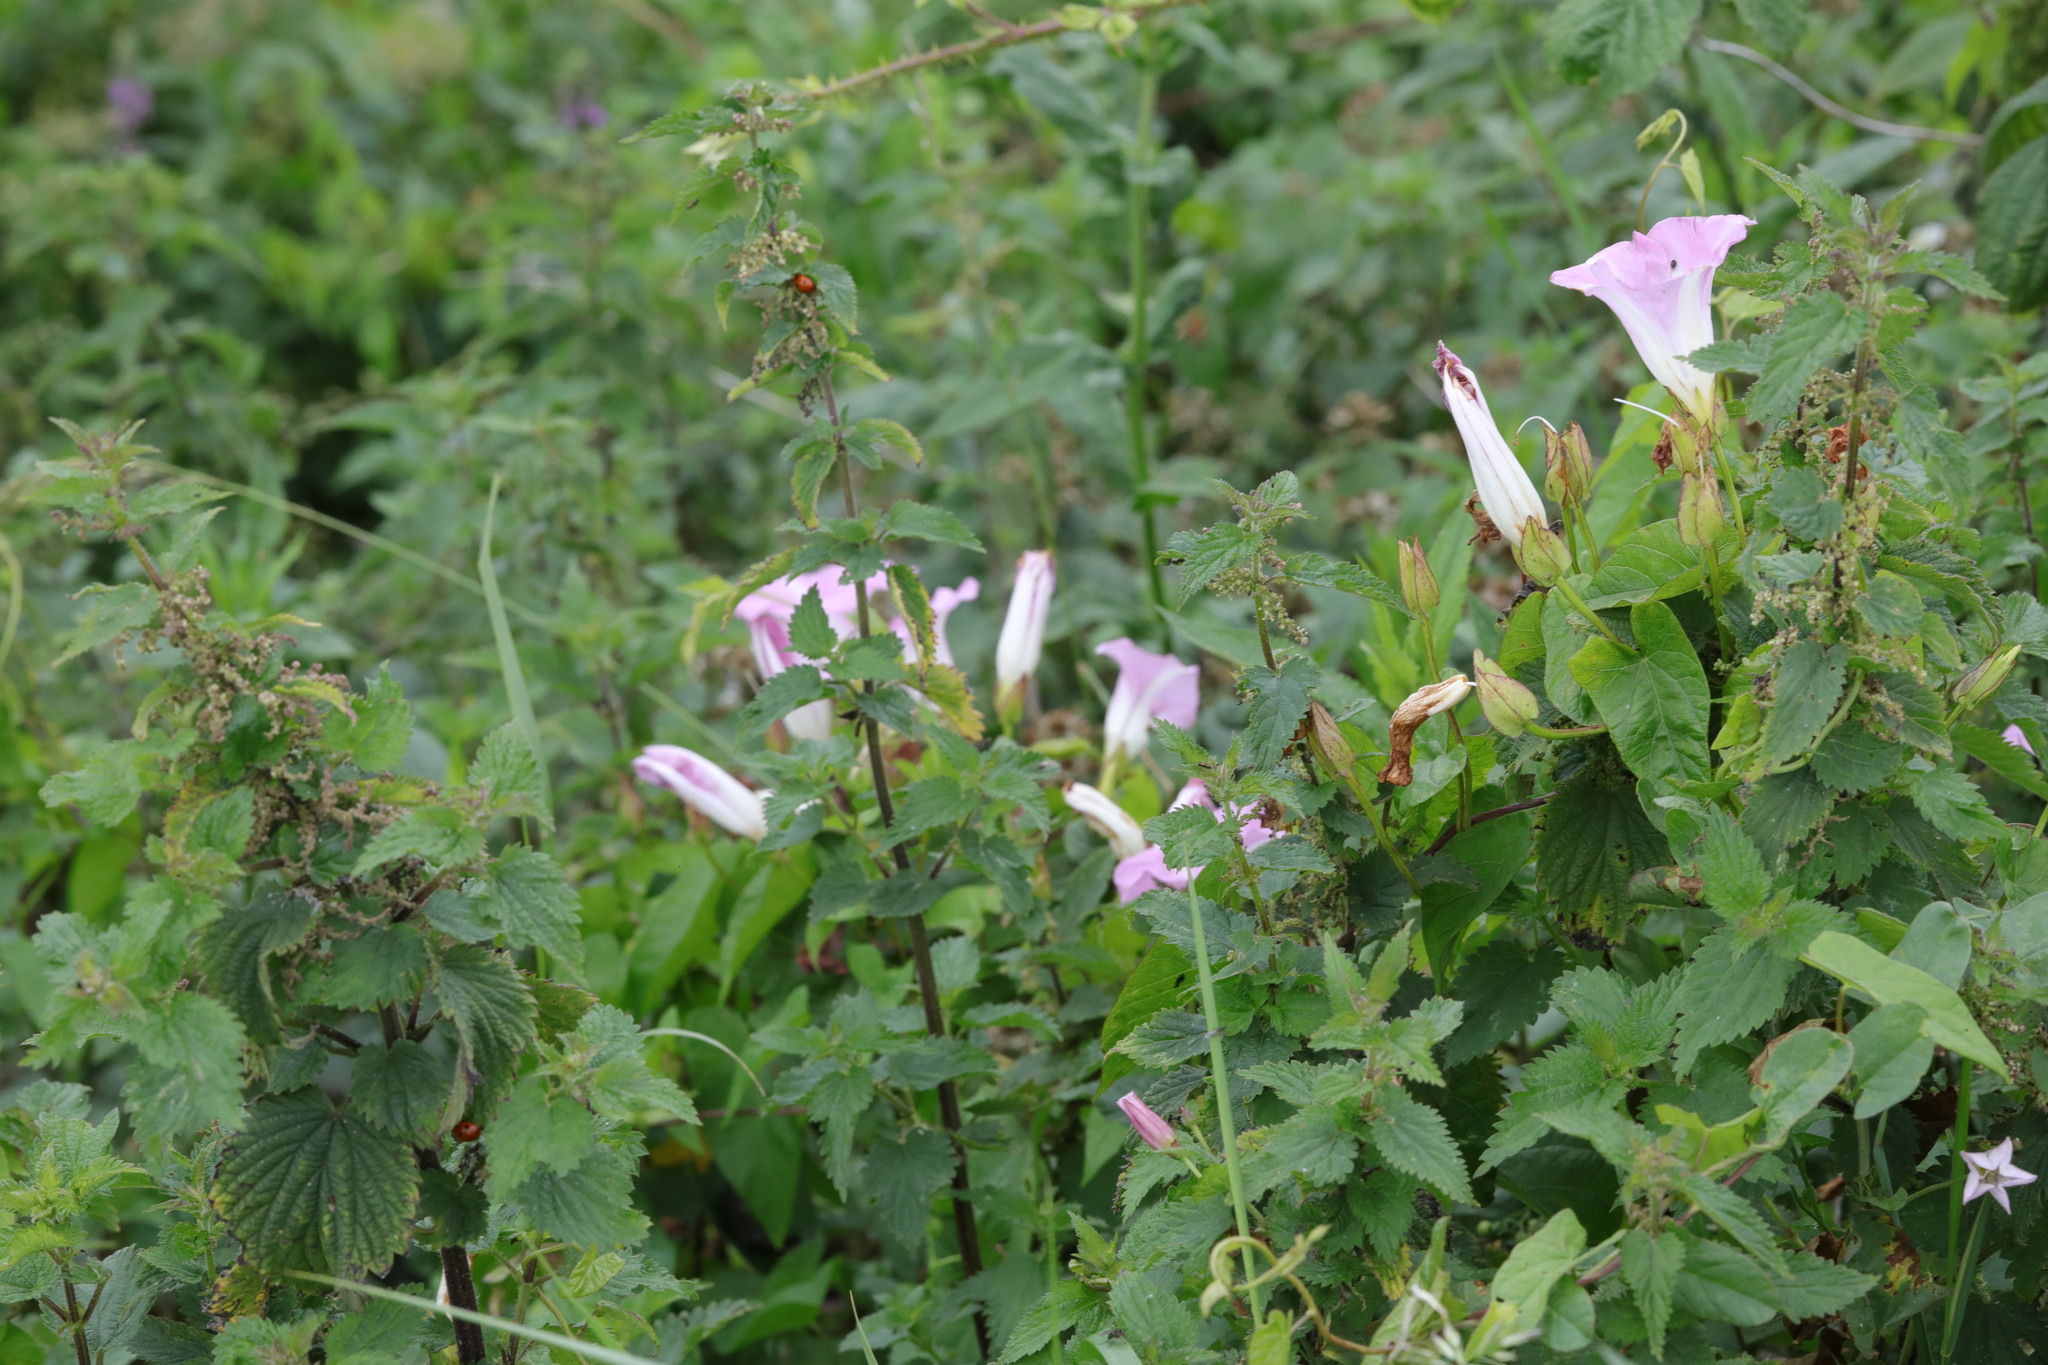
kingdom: Plantae
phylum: Tracheophyta
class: Magnoliopsida
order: Solanales
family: Convolvulaceae
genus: Calystegia
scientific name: Calystegia sepium
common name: Hedge bindweed
